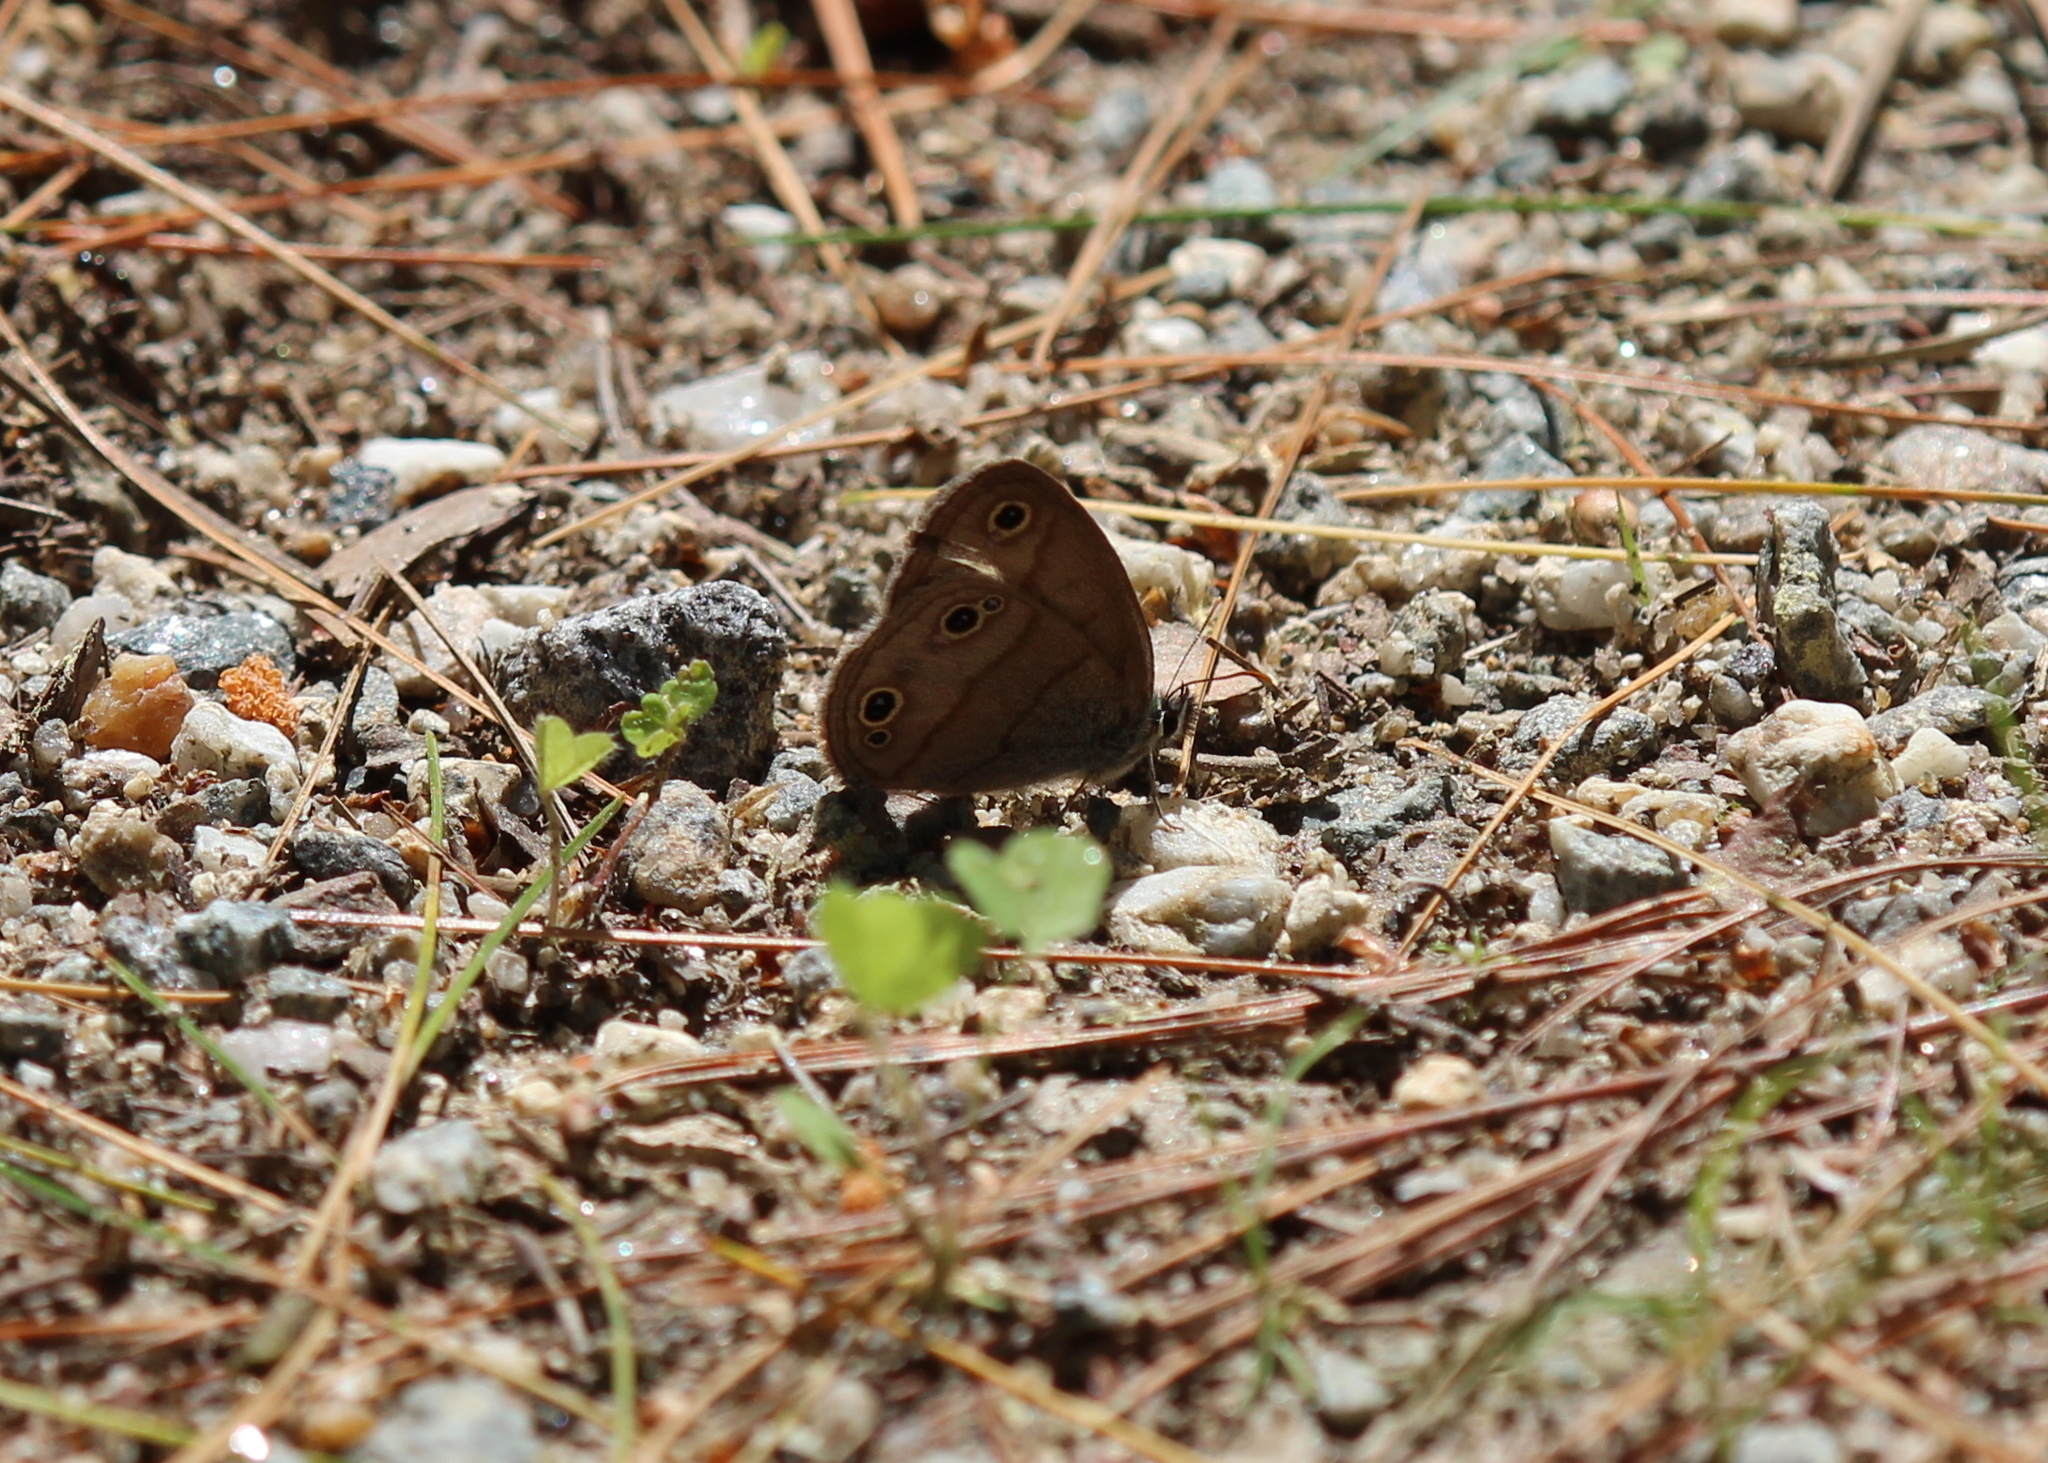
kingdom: Animalia
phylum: Arthropoda
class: Insecta
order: Lepidoptera
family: Nymphalidae
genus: Euptychia
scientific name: Euptychia cymela
